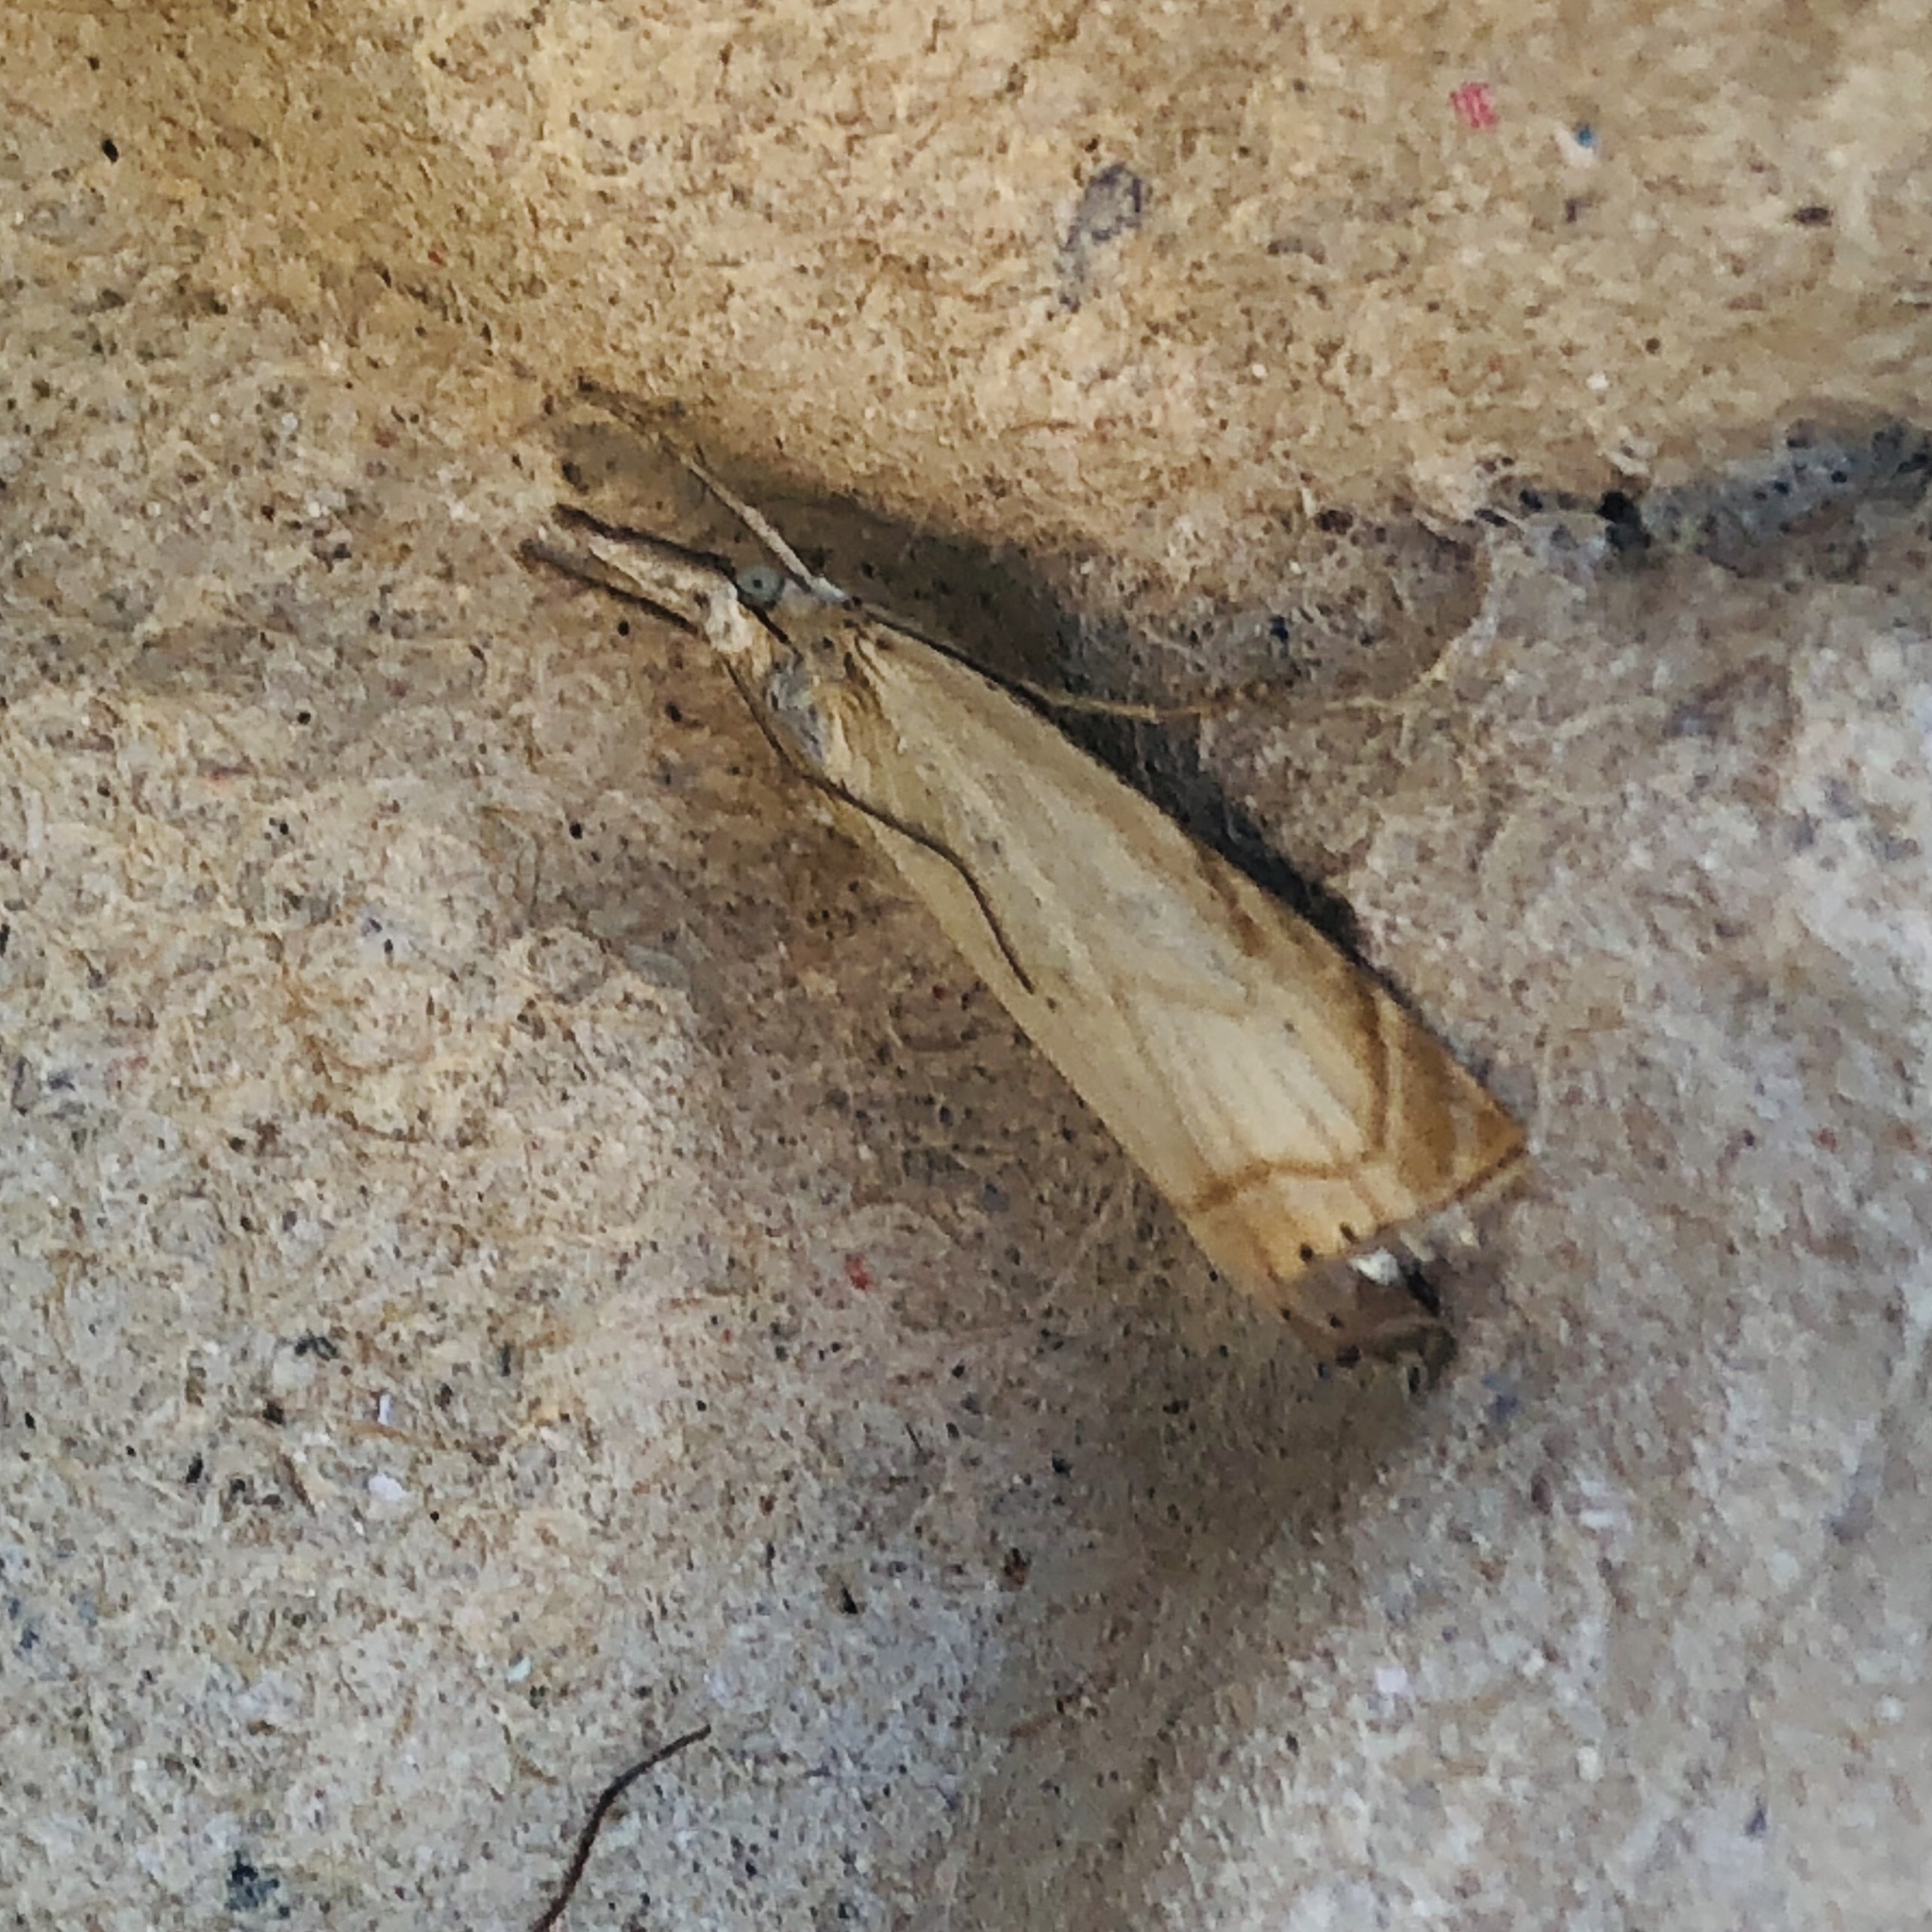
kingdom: Animalia
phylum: Arthropoda
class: Insecta
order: Lepidoptera
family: Crambidae
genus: Chrysoteuchia
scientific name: Chrysoteuchia culmella
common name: Garden grass-veneer
